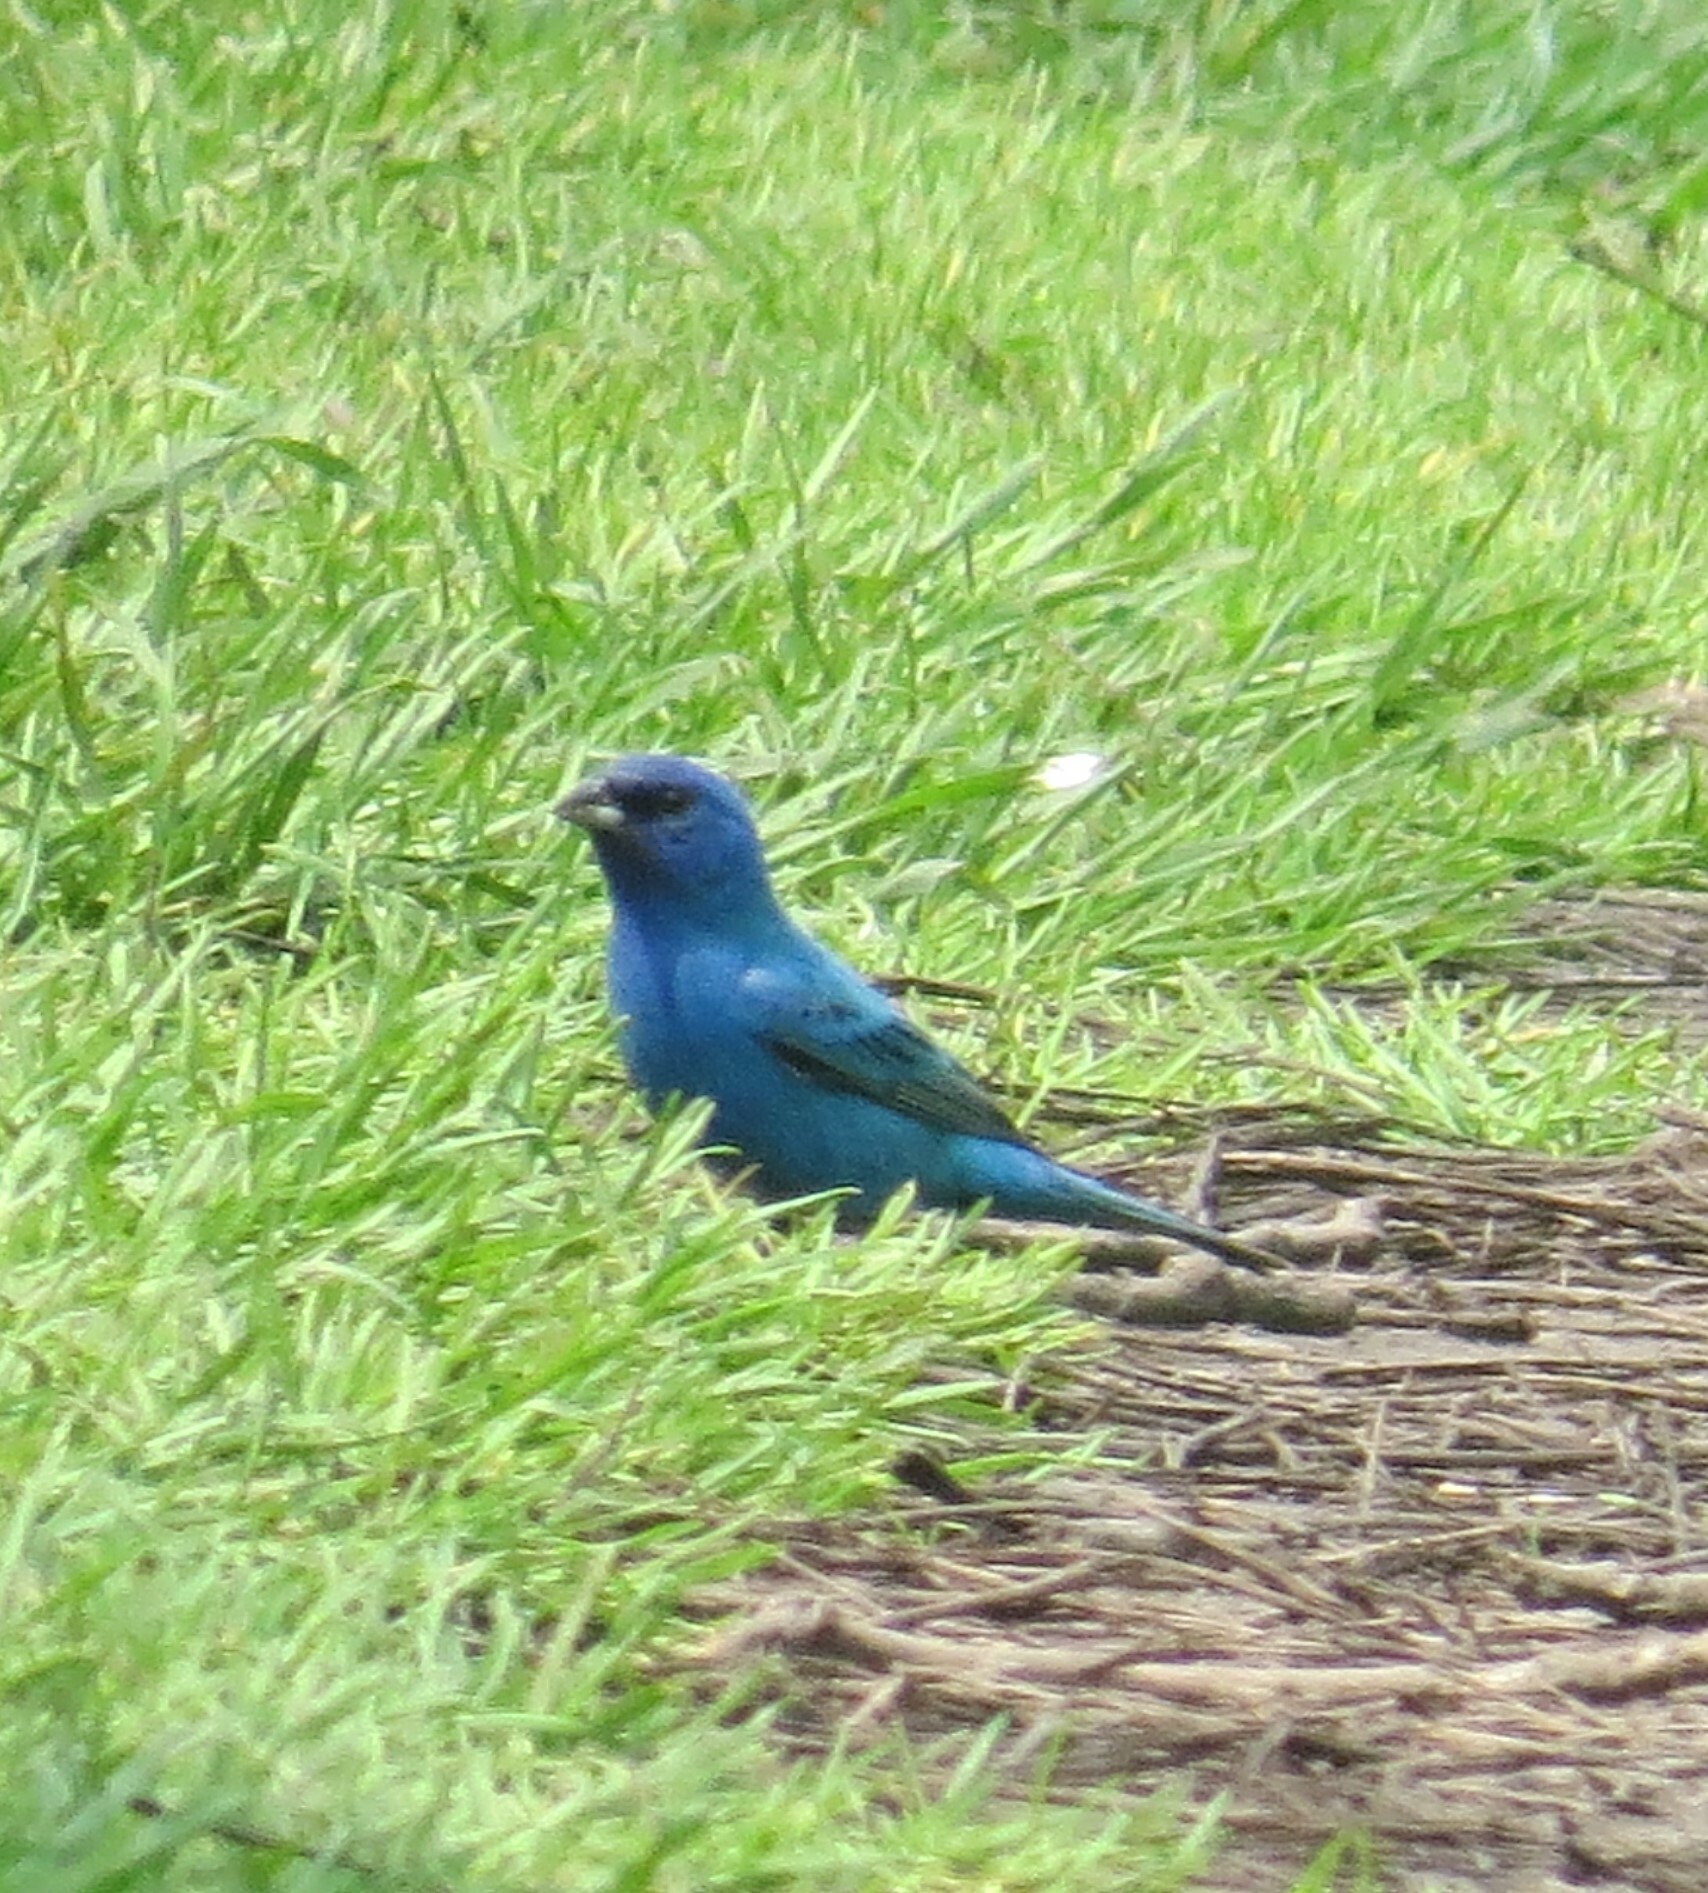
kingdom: Animalia
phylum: Chordata
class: Aves
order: Passeriformes
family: Cardinalidae
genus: Passerina
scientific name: Passerina cyanea
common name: Indigo bunting
